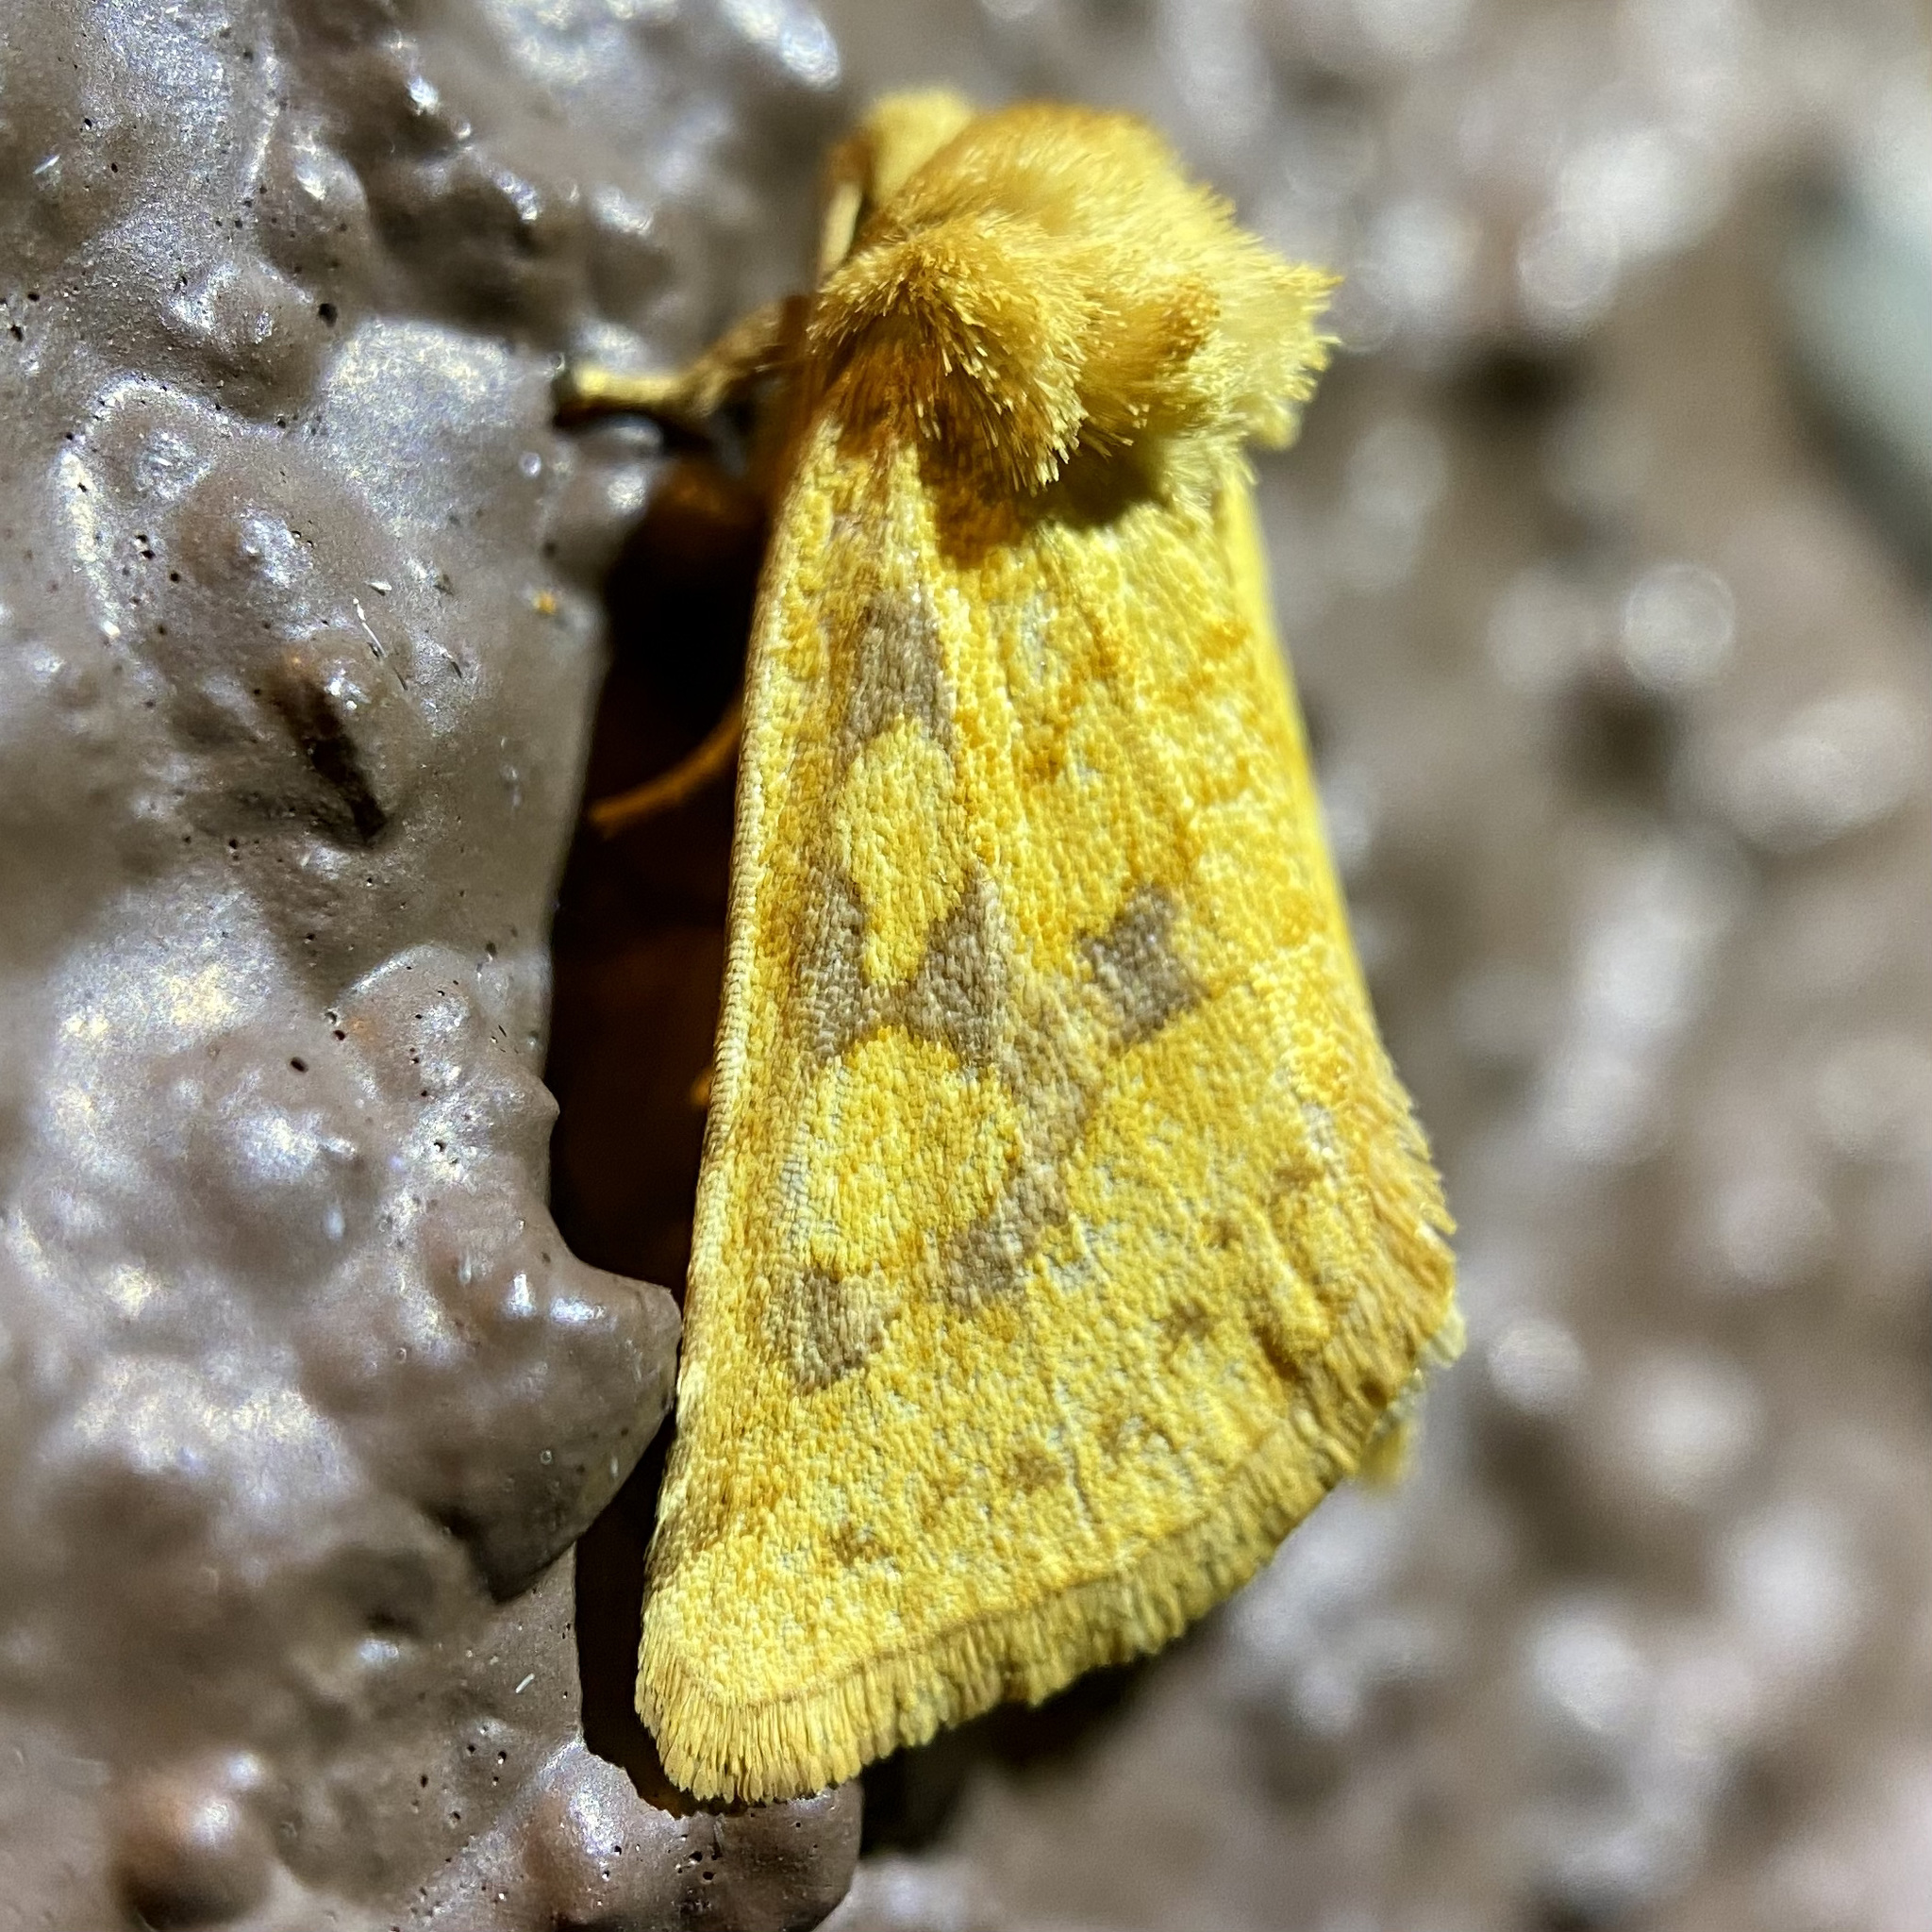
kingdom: Animalia
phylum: Arthropoda
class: Insecta
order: Lepidoptera
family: Noctuidae
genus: Nocloa
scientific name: Nocloa cordova
